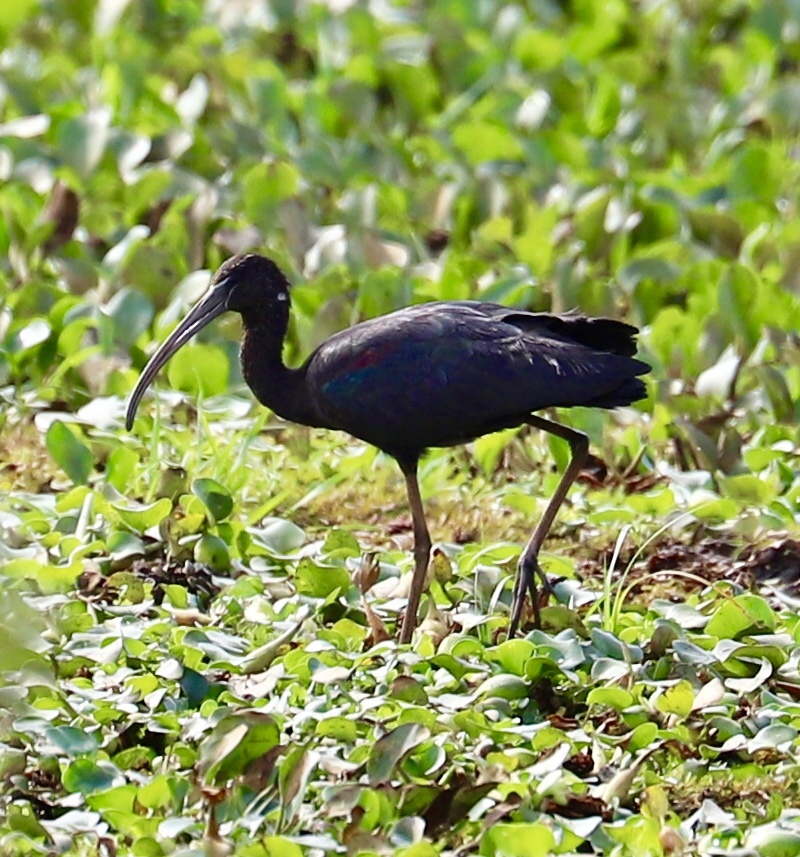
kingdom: Animalia
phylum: Chordata
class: Aves
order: Pelecaniformes
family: Threskiornithidae
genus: Plegadis
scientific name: Plegadis falcinellus
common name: Glossy ibis
